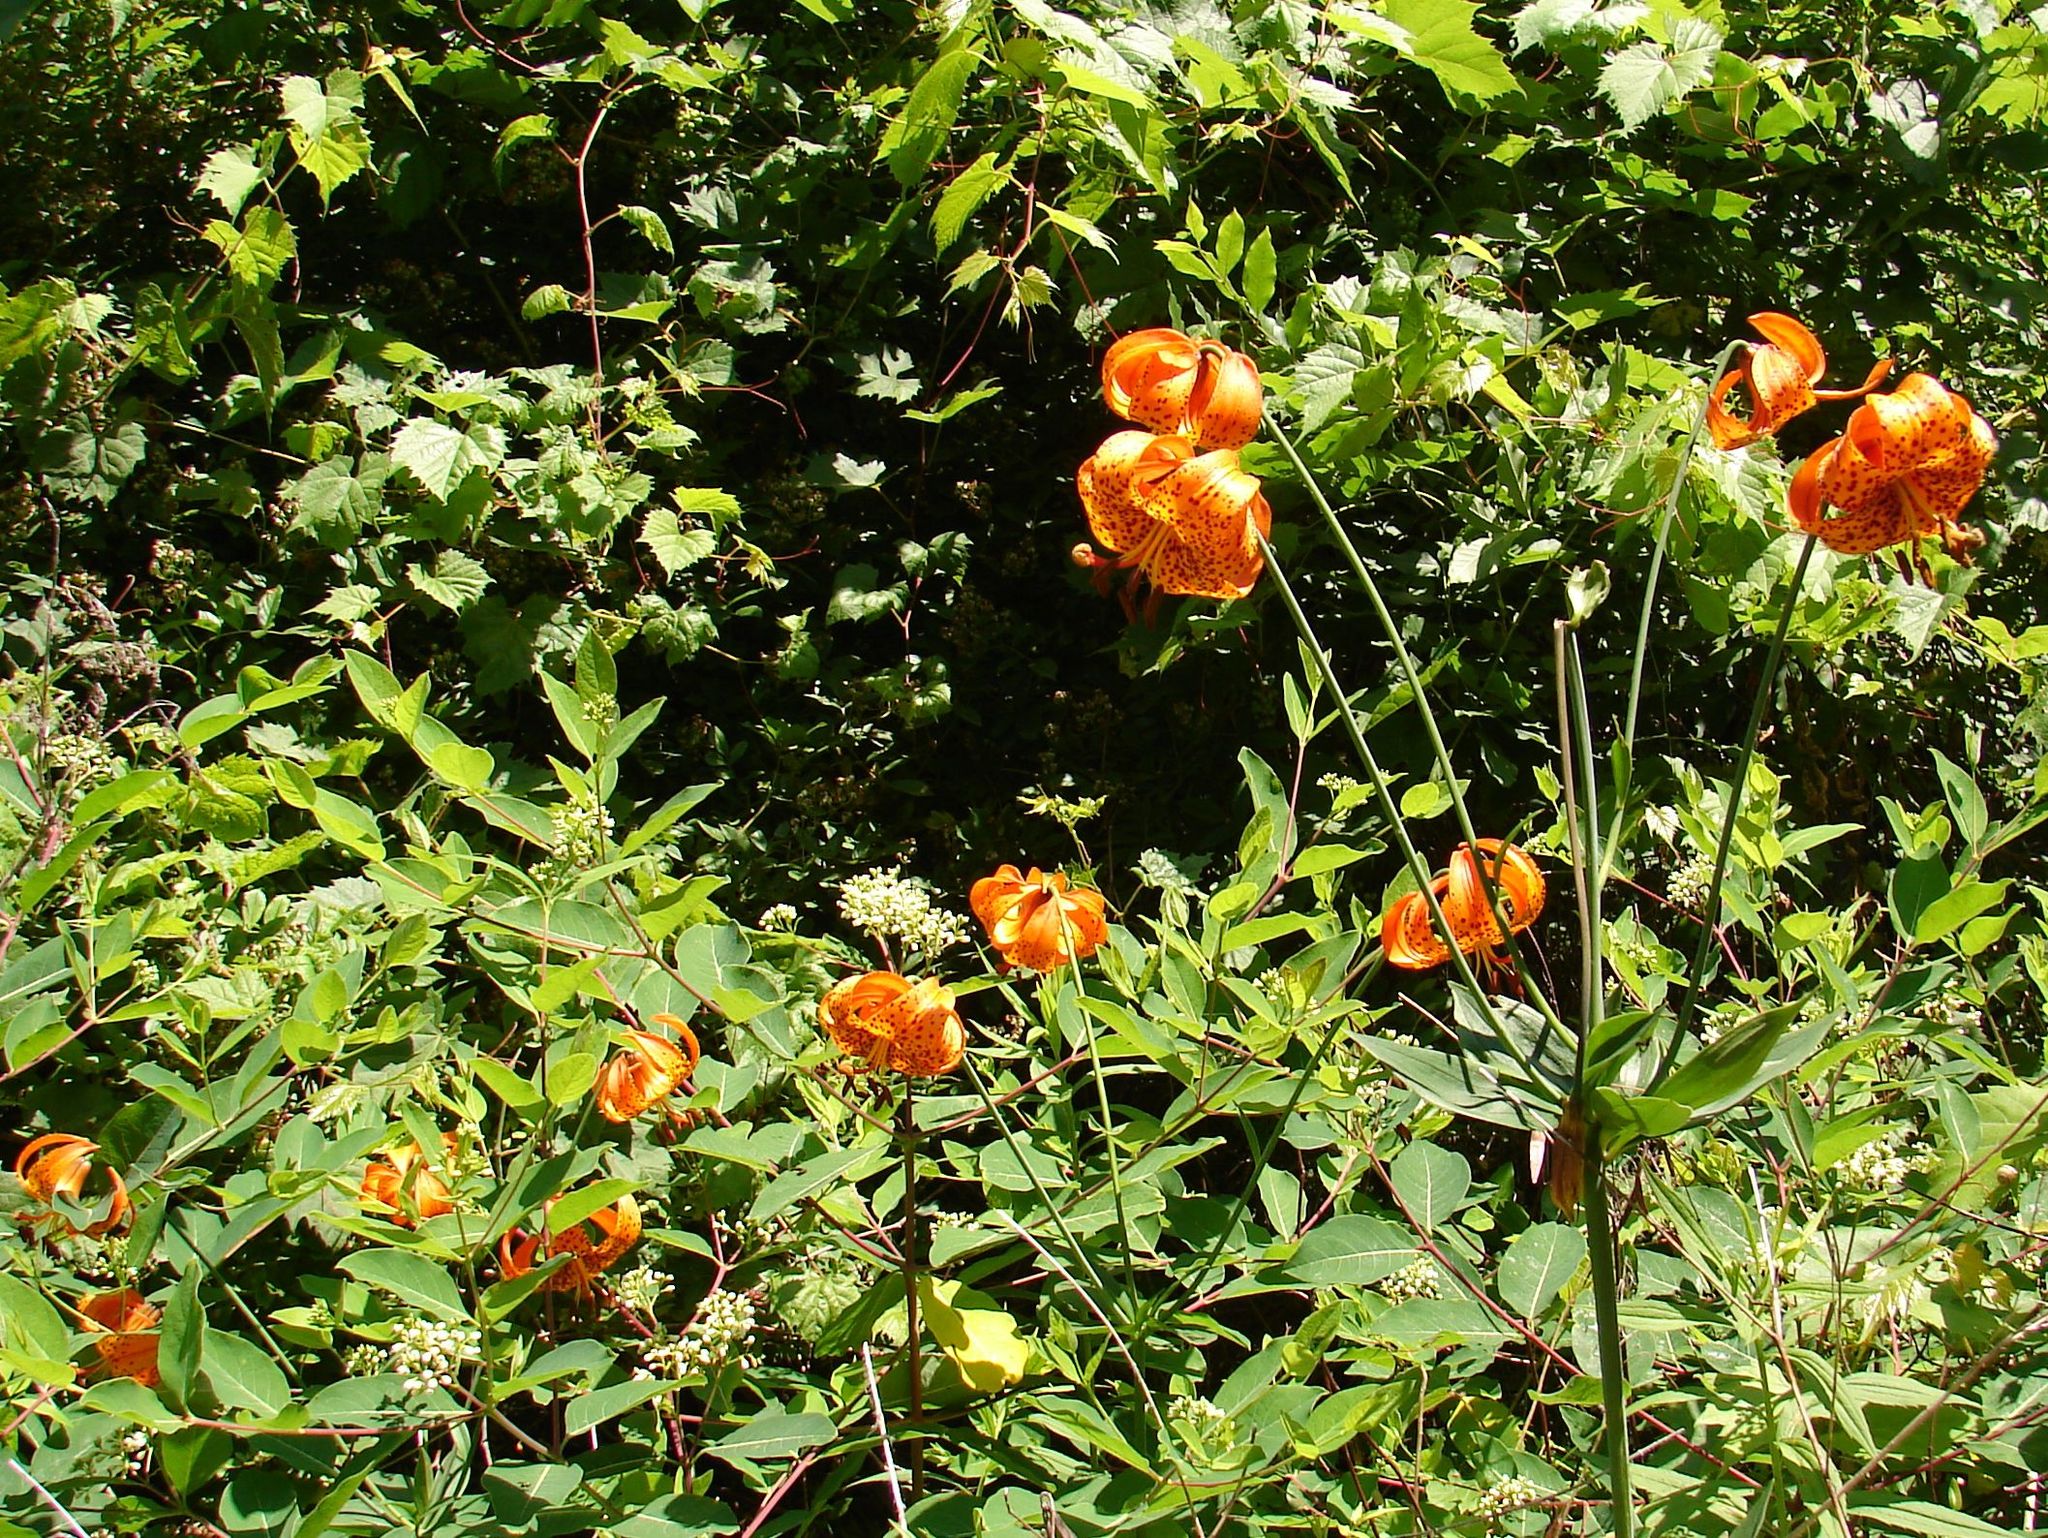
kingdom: Plantae
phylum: Tracheophyta
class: Liliopsida
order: Liliales
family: Liliaceae
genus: Lilium
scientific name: Lilium michiganense
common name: Michigan lily
